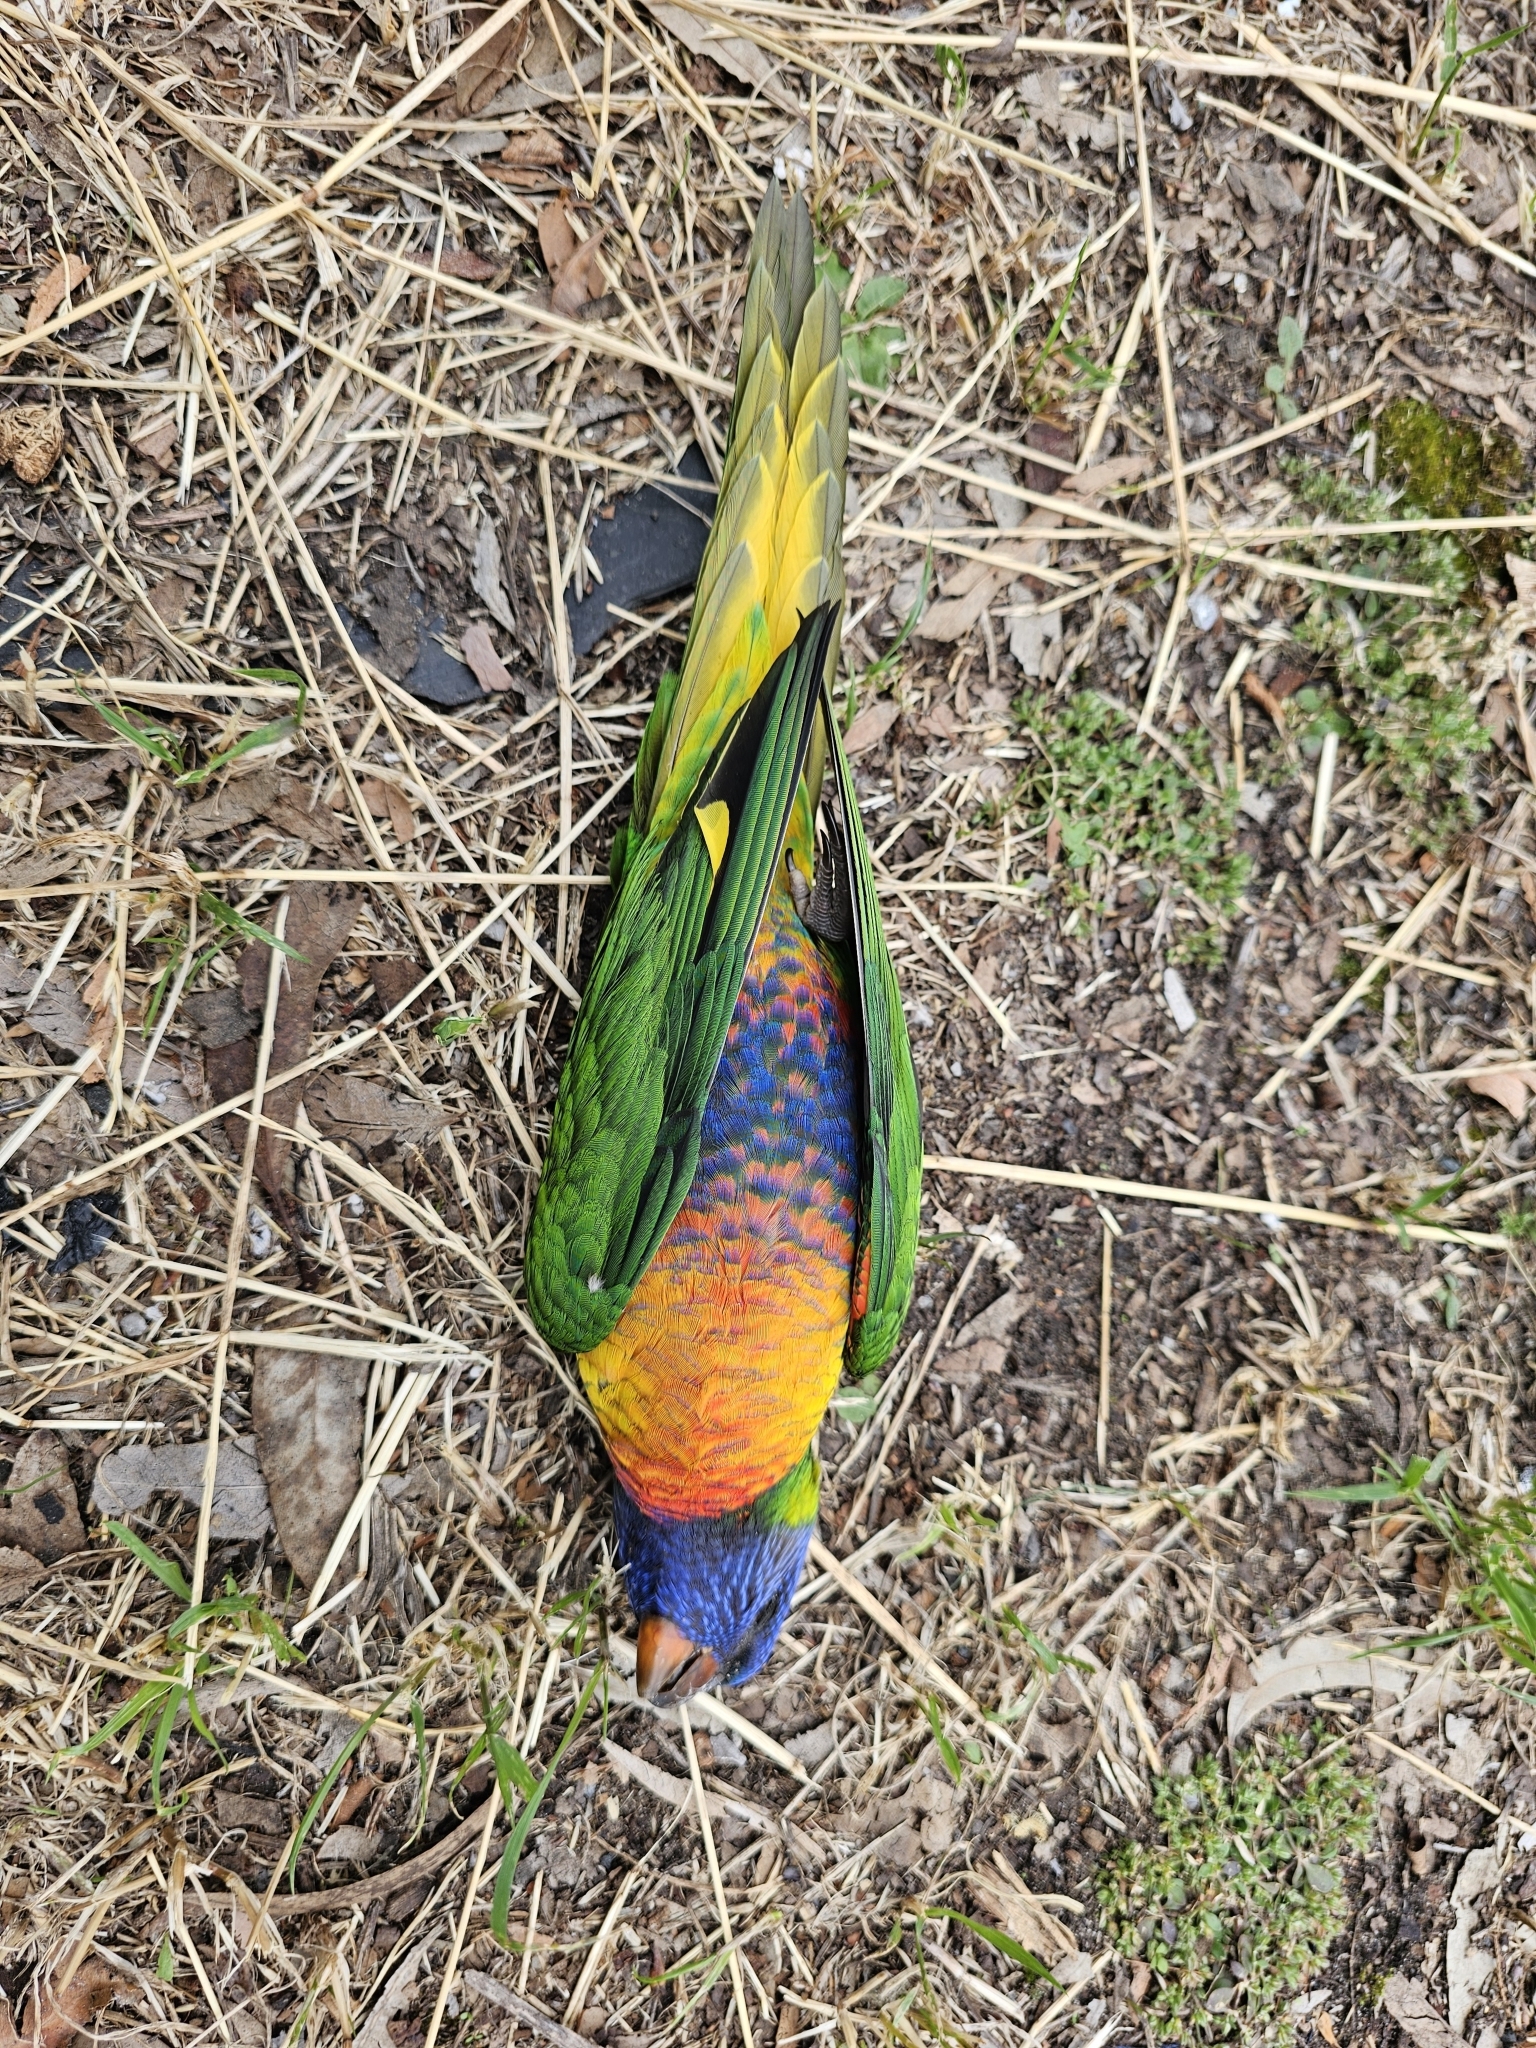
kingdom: Animalia
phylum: Chordata
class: Aves
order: Psittaciformes
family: Psittacidae
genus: Trichoglossus
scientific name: Trichoglossus haematodus
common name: Coconut lorikeet
